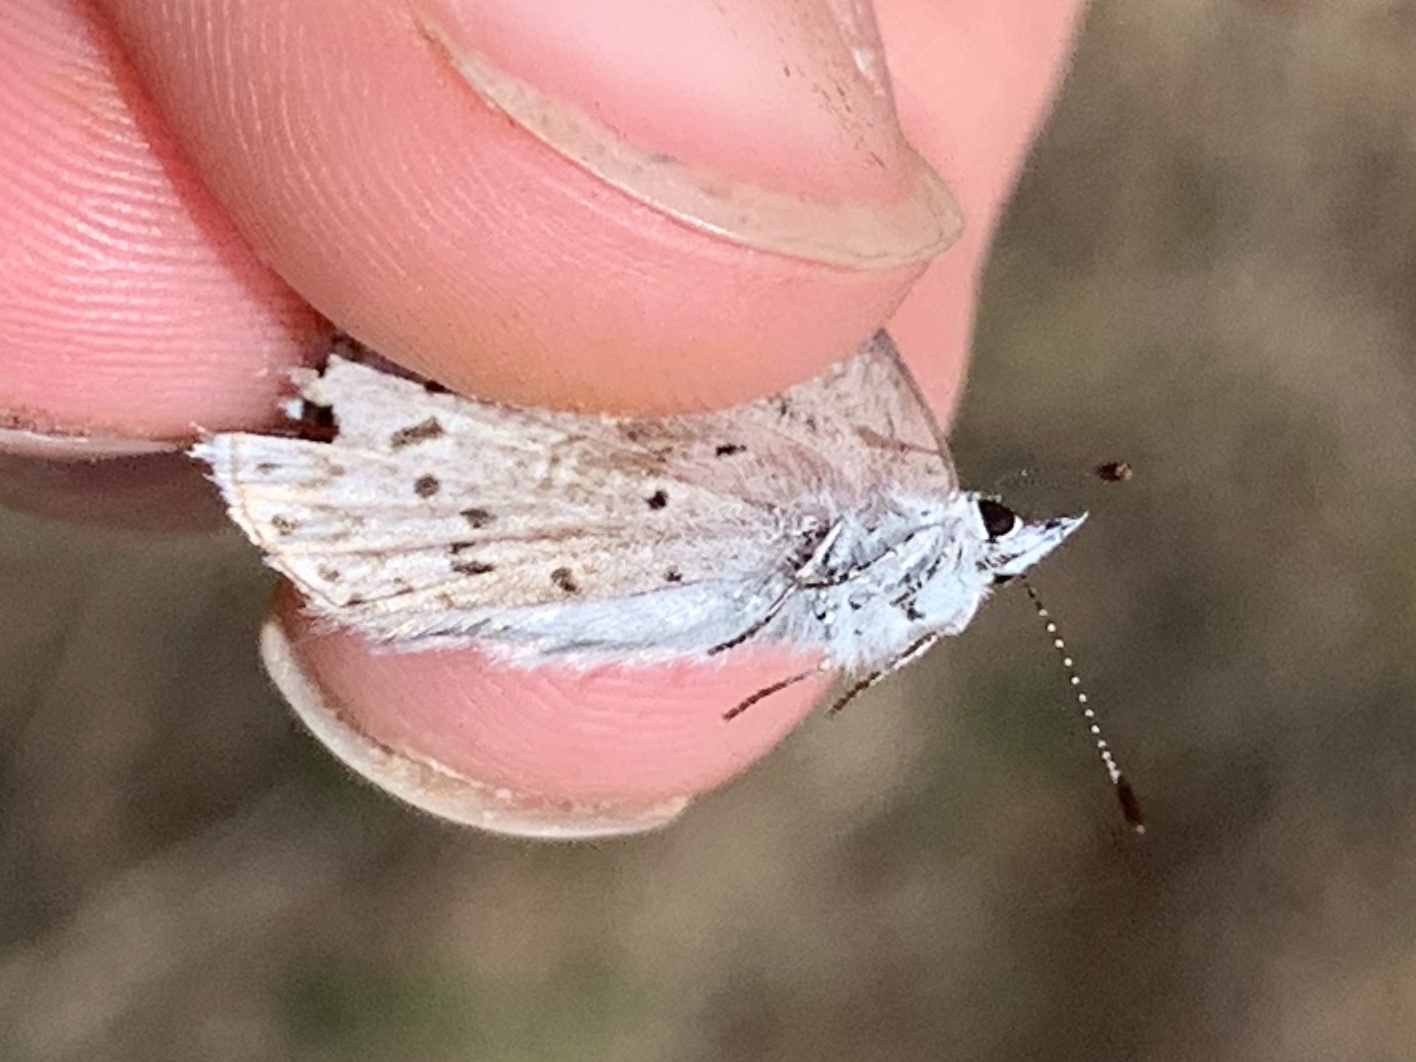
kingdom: Animalia
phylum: Arthropoda
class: Insecta
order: Lepidoptera
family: Lycaenidae
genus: Elkalyce
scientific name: Elkalyce amyntula
